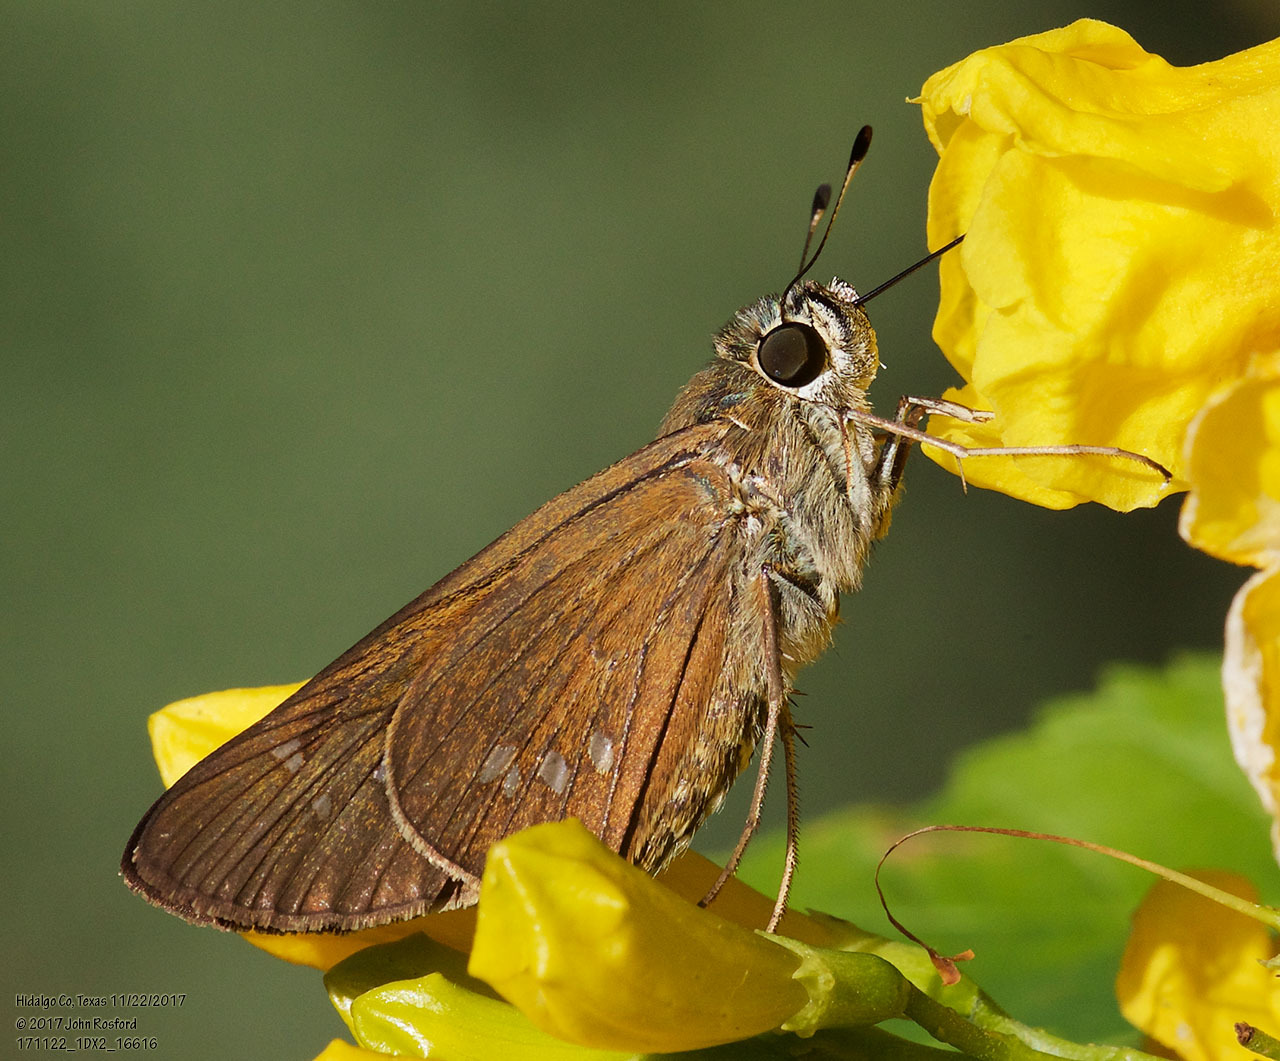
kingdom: Animalia
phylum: Arthropoda
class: Insecta
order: Lepidoptera
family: Hesperiidae
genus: Calpodes
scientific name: Calpodes ethlius
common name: Brazilian skipper
